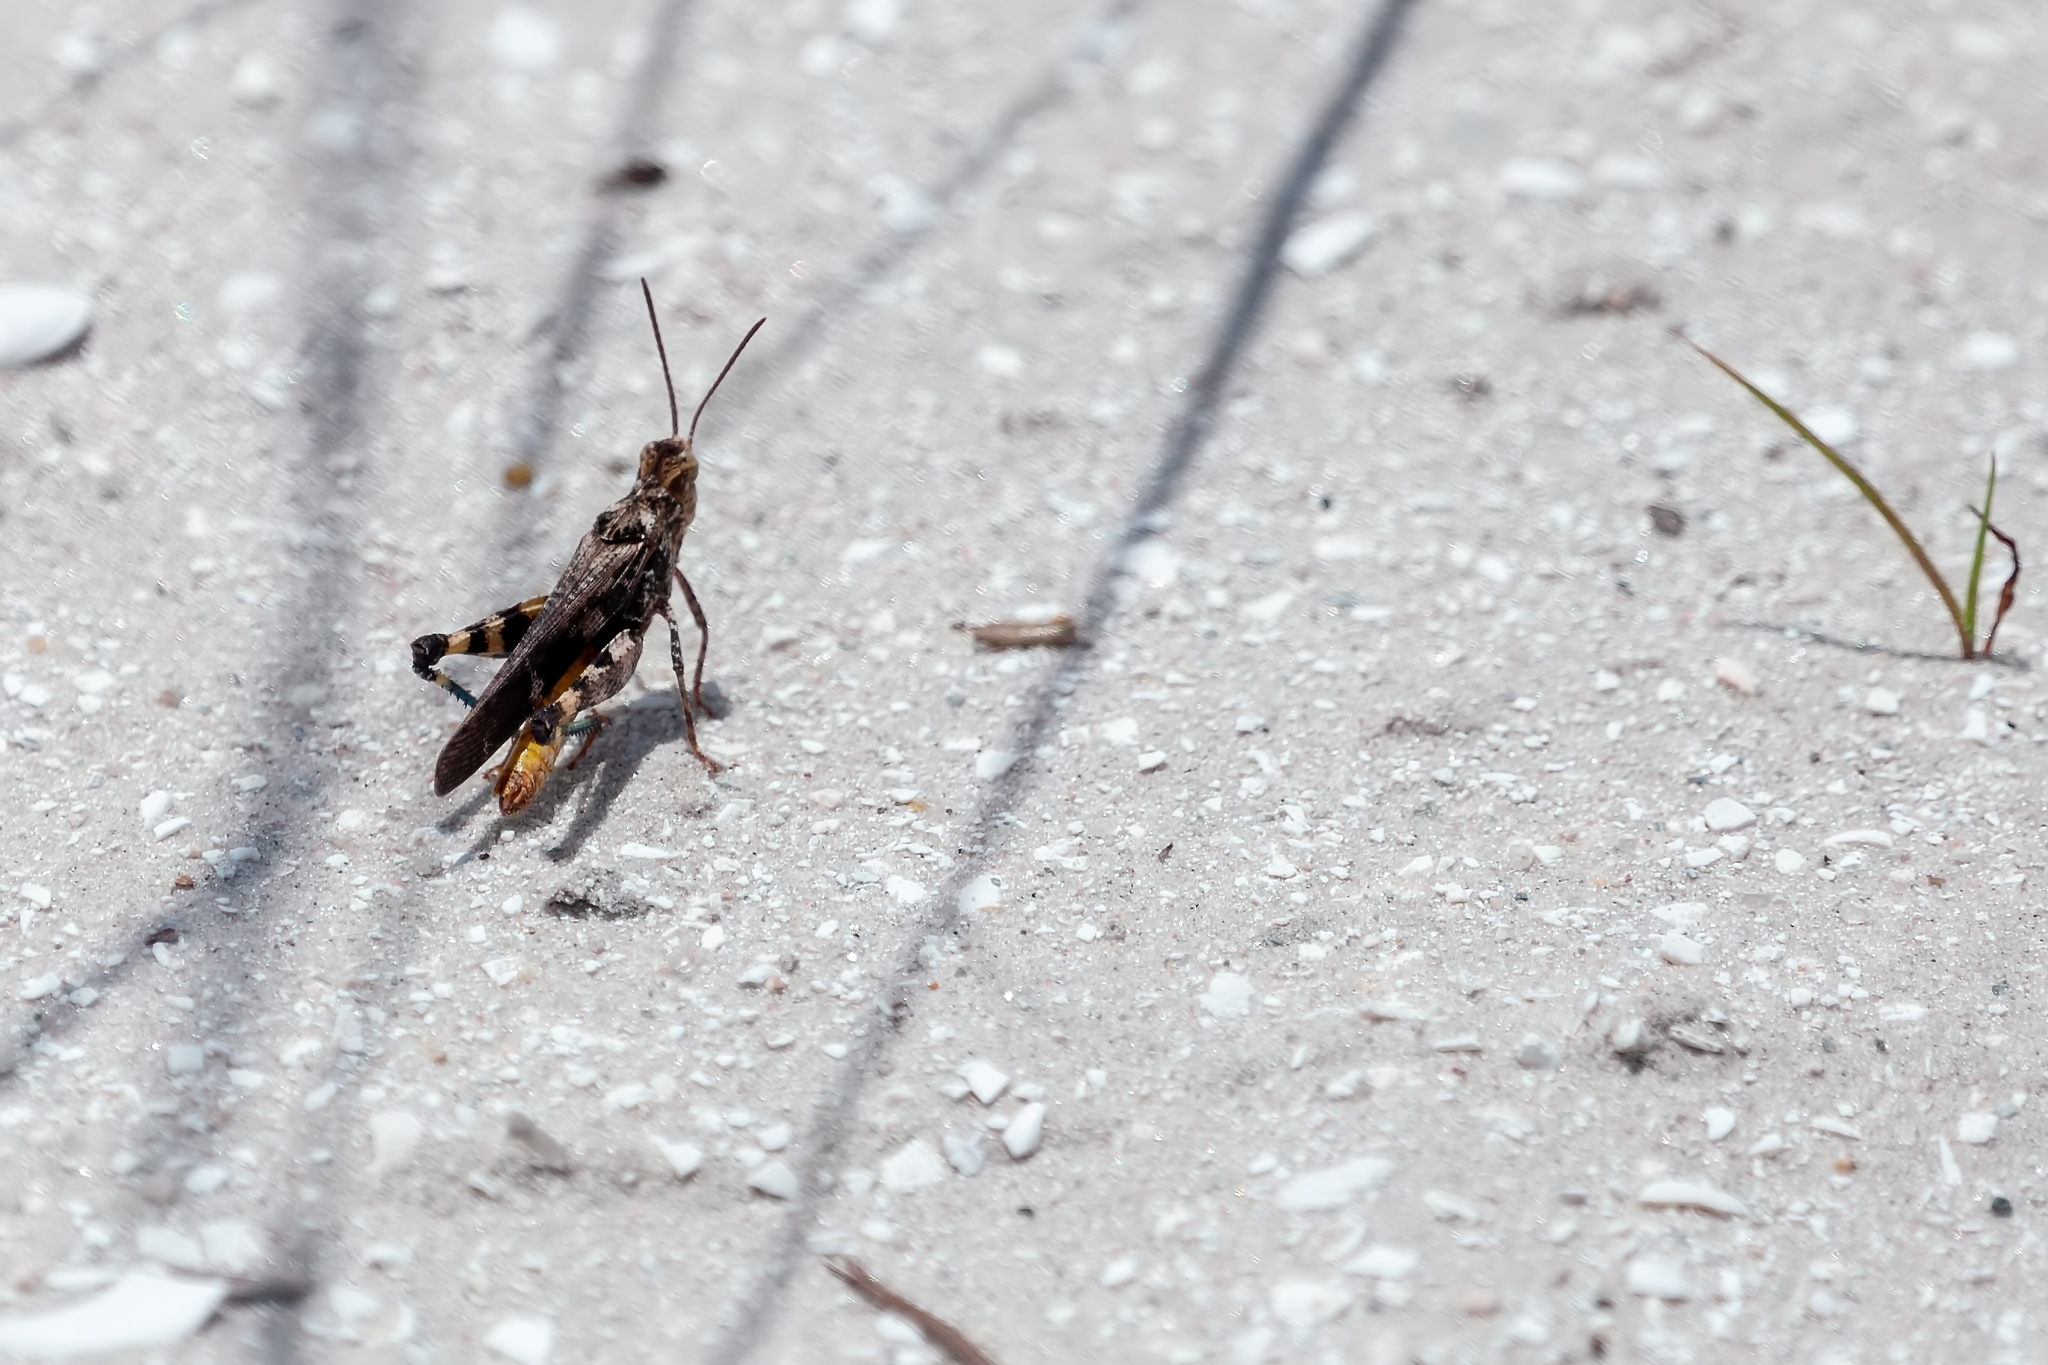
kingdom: Animalia
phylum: Arthropoda
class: Insecta
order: Orthoptera
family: Acrididae
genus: Chortophaga
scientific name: Chortophaga australior
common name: Southern green-striped grasshopper
